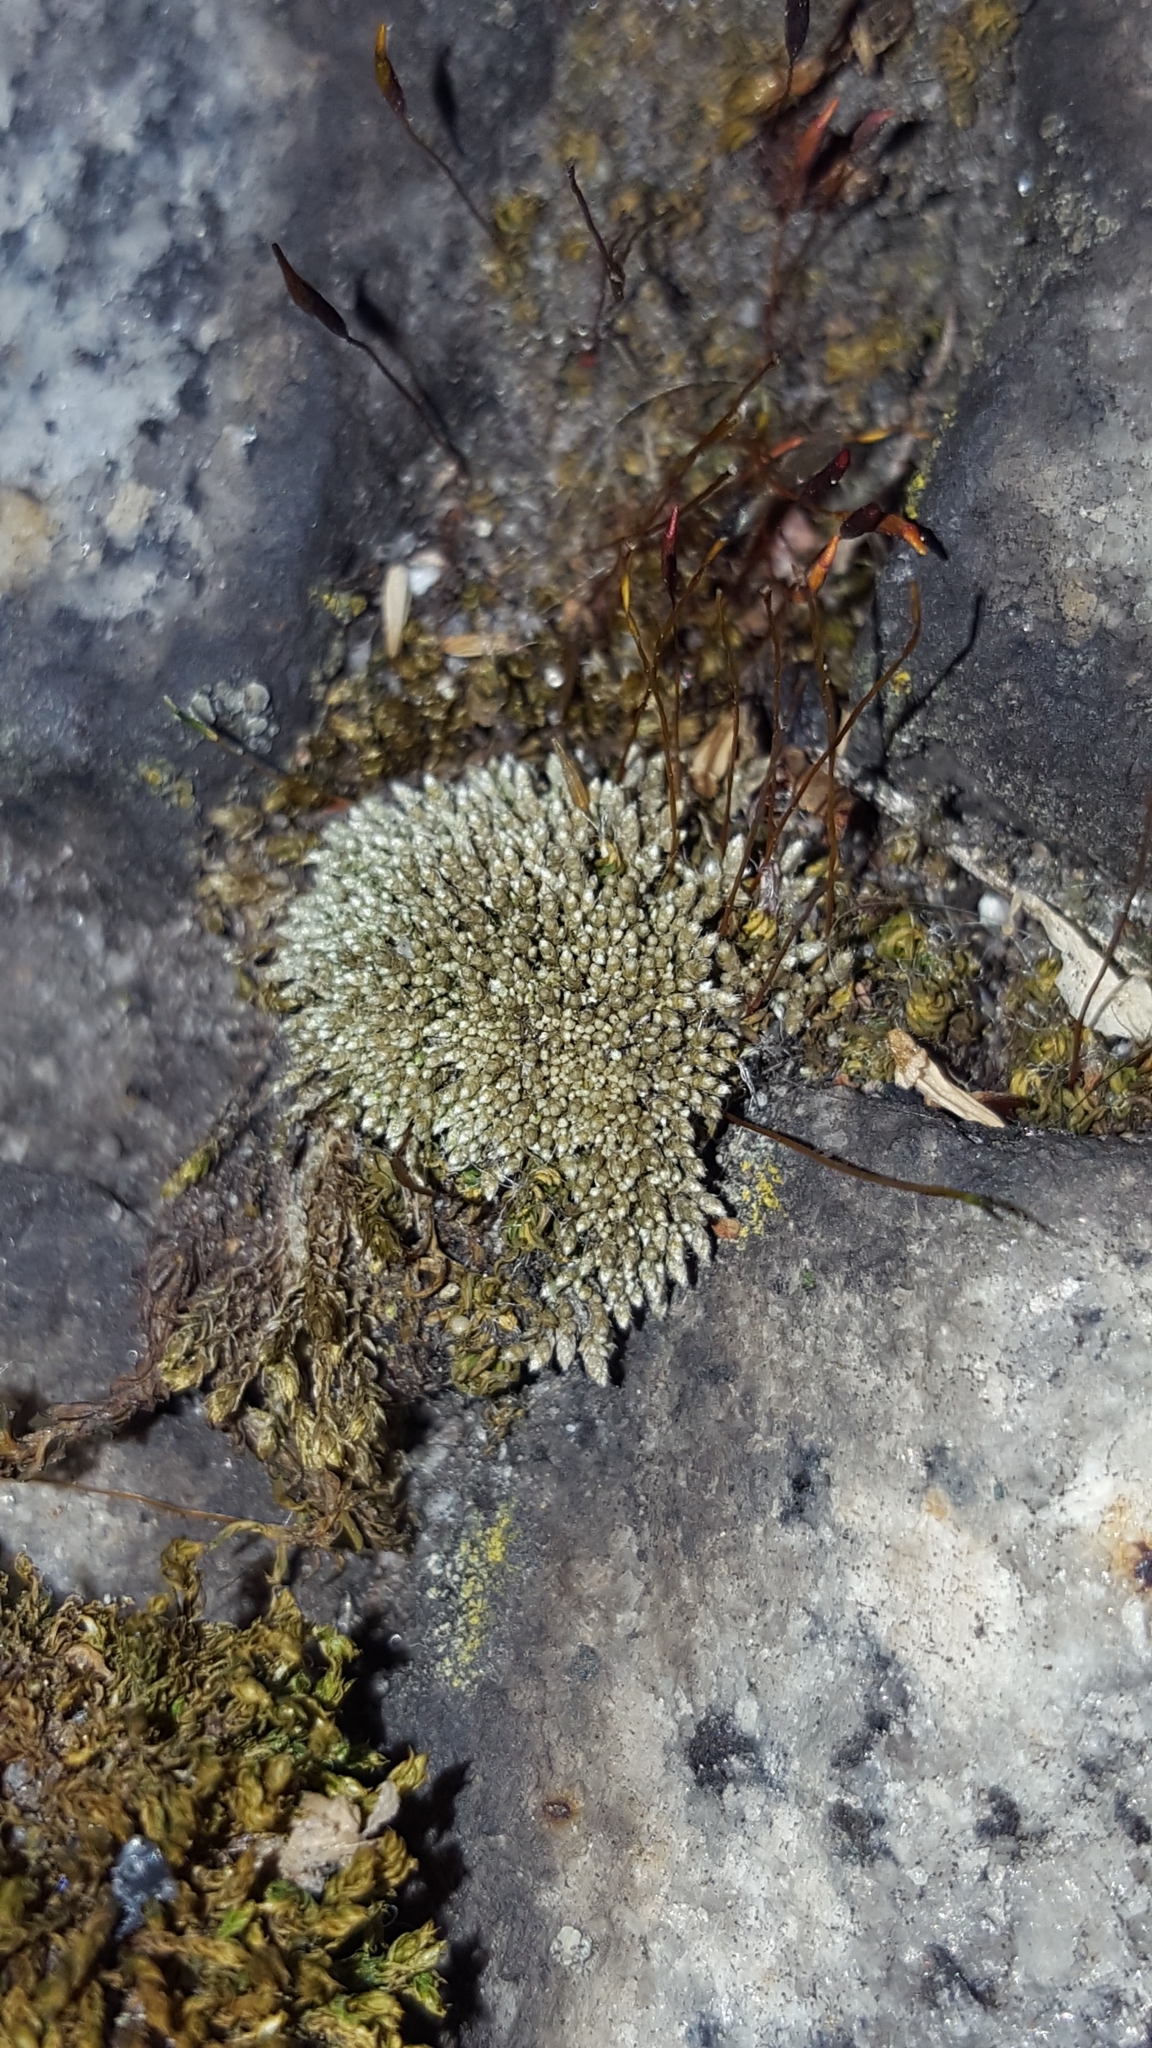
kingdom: Plantae
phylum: Bryophyta
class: Bryopsida
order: Bryales
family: Bryaceae
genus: Bryum
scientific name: Bryum argenteum
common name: Silver-moss
